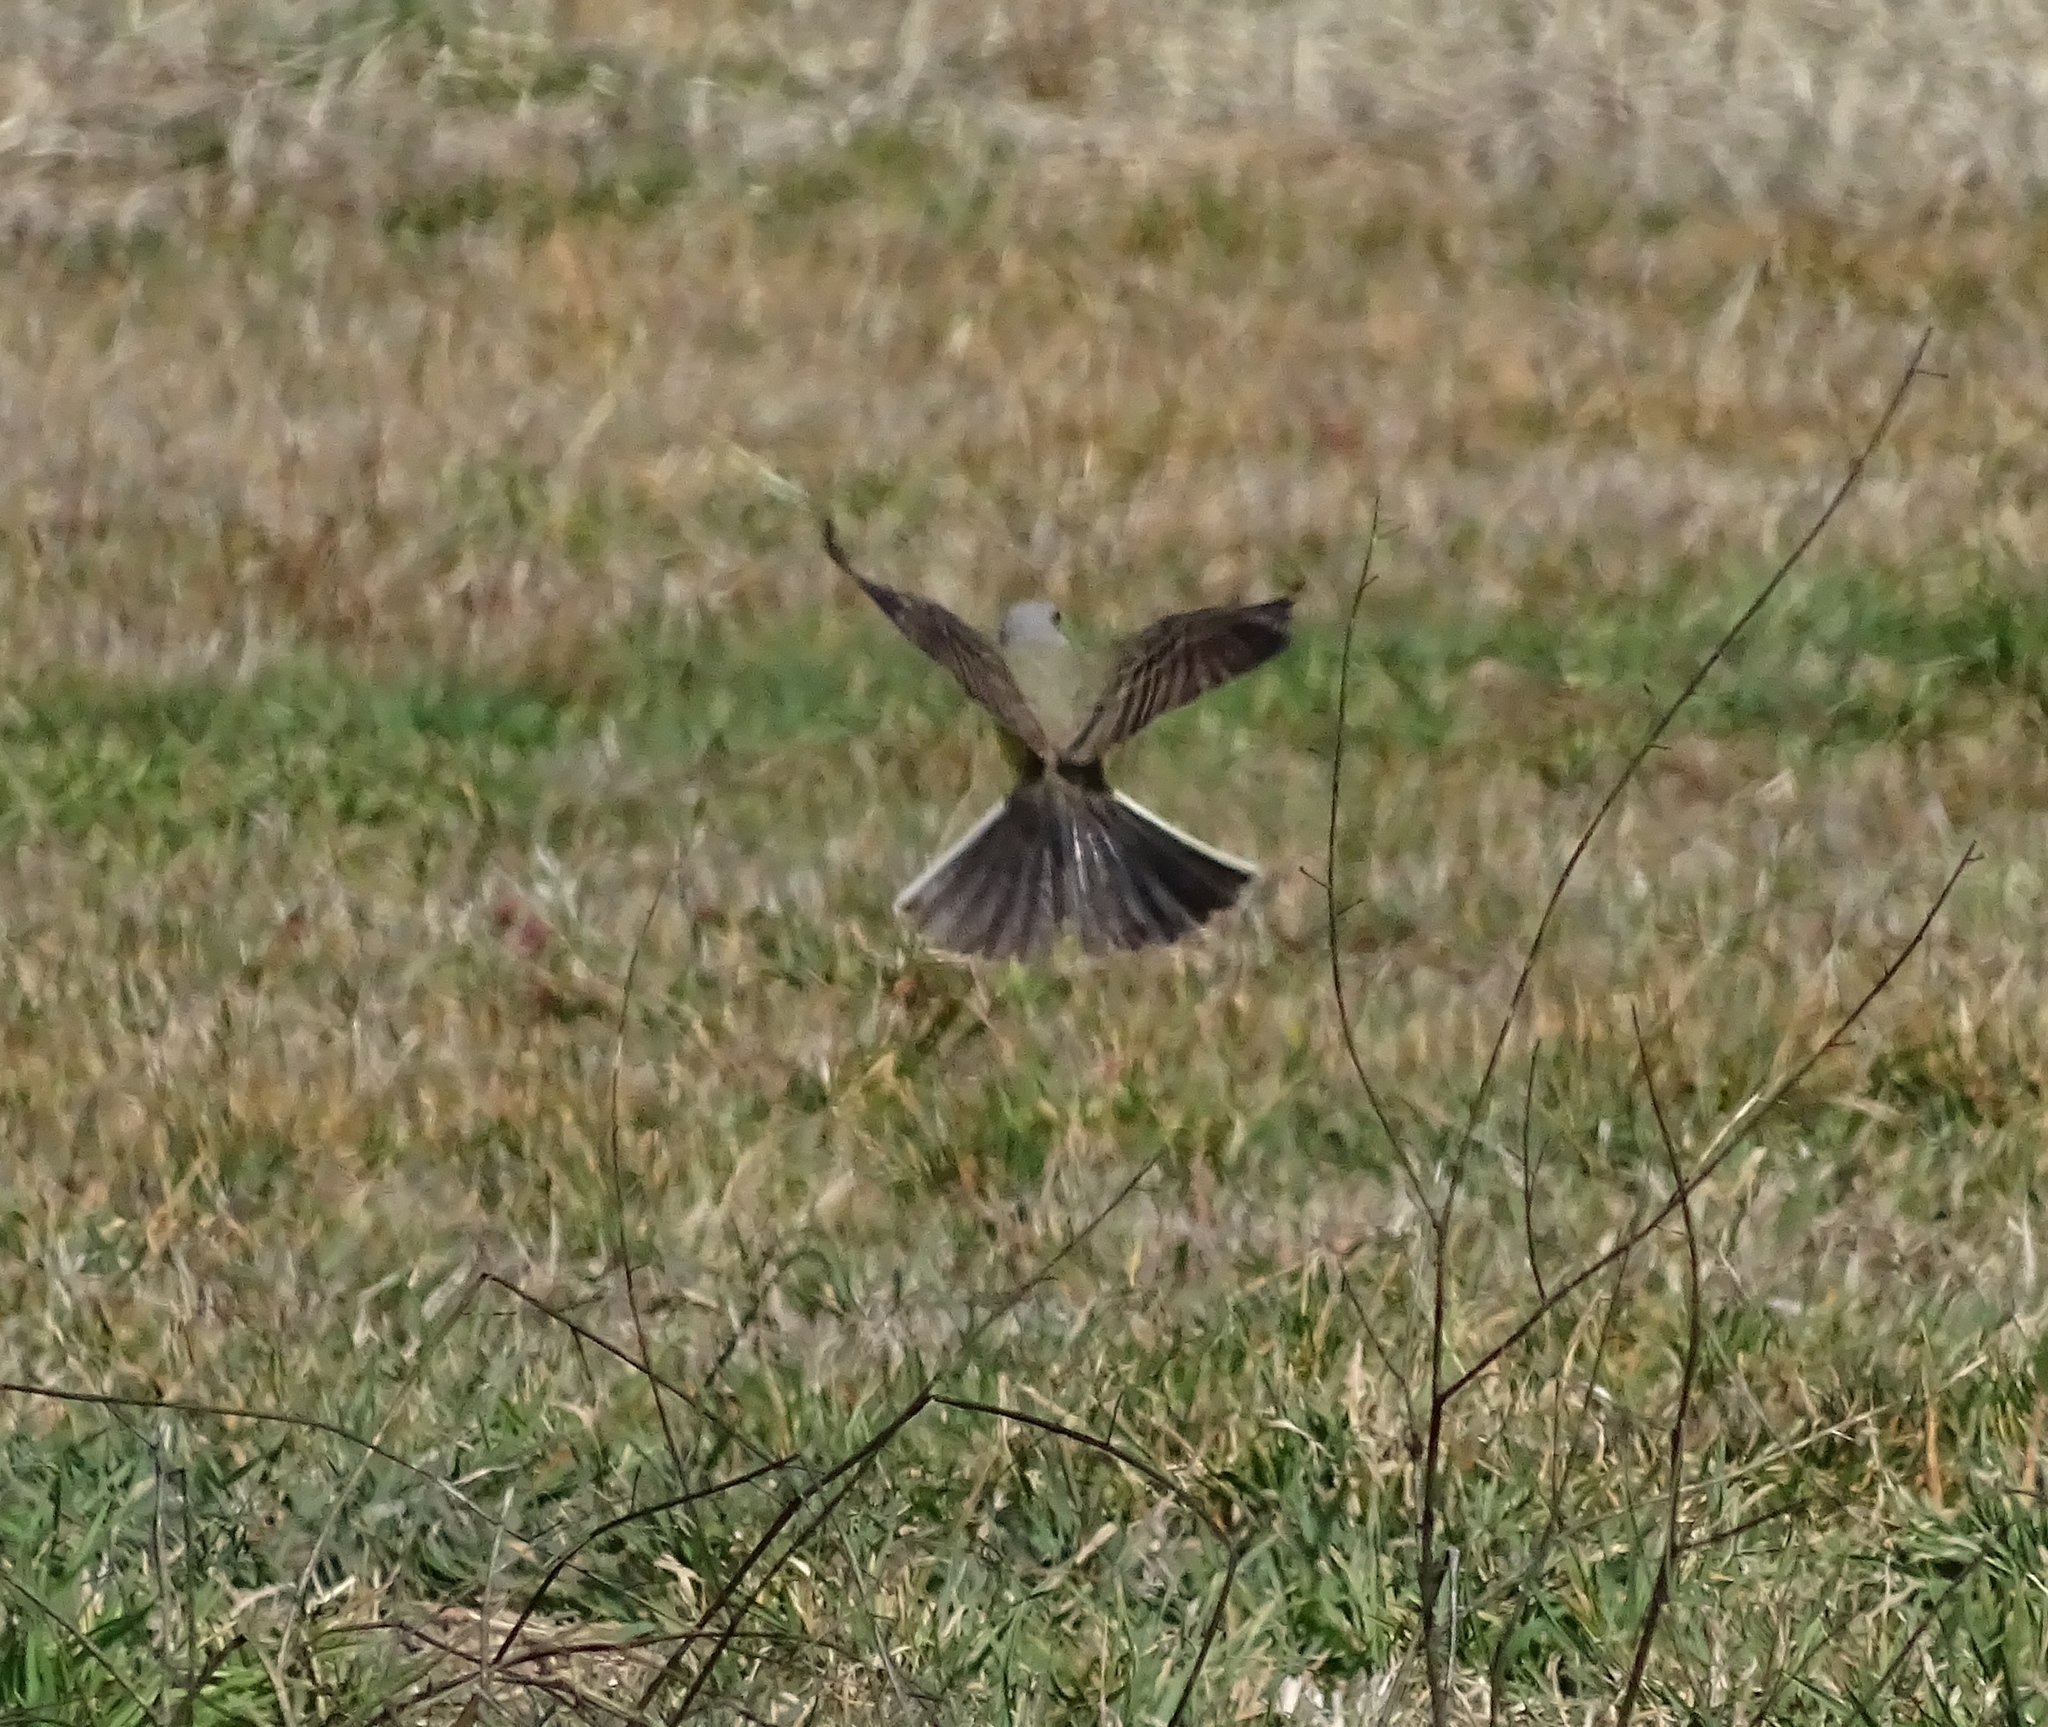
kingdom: Animalia
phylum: Chordata
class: Aves
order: Passeriformes
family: Tyrannidae
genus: Tyrannus
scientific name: Tyrannus verticalis
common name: Western kingbird
